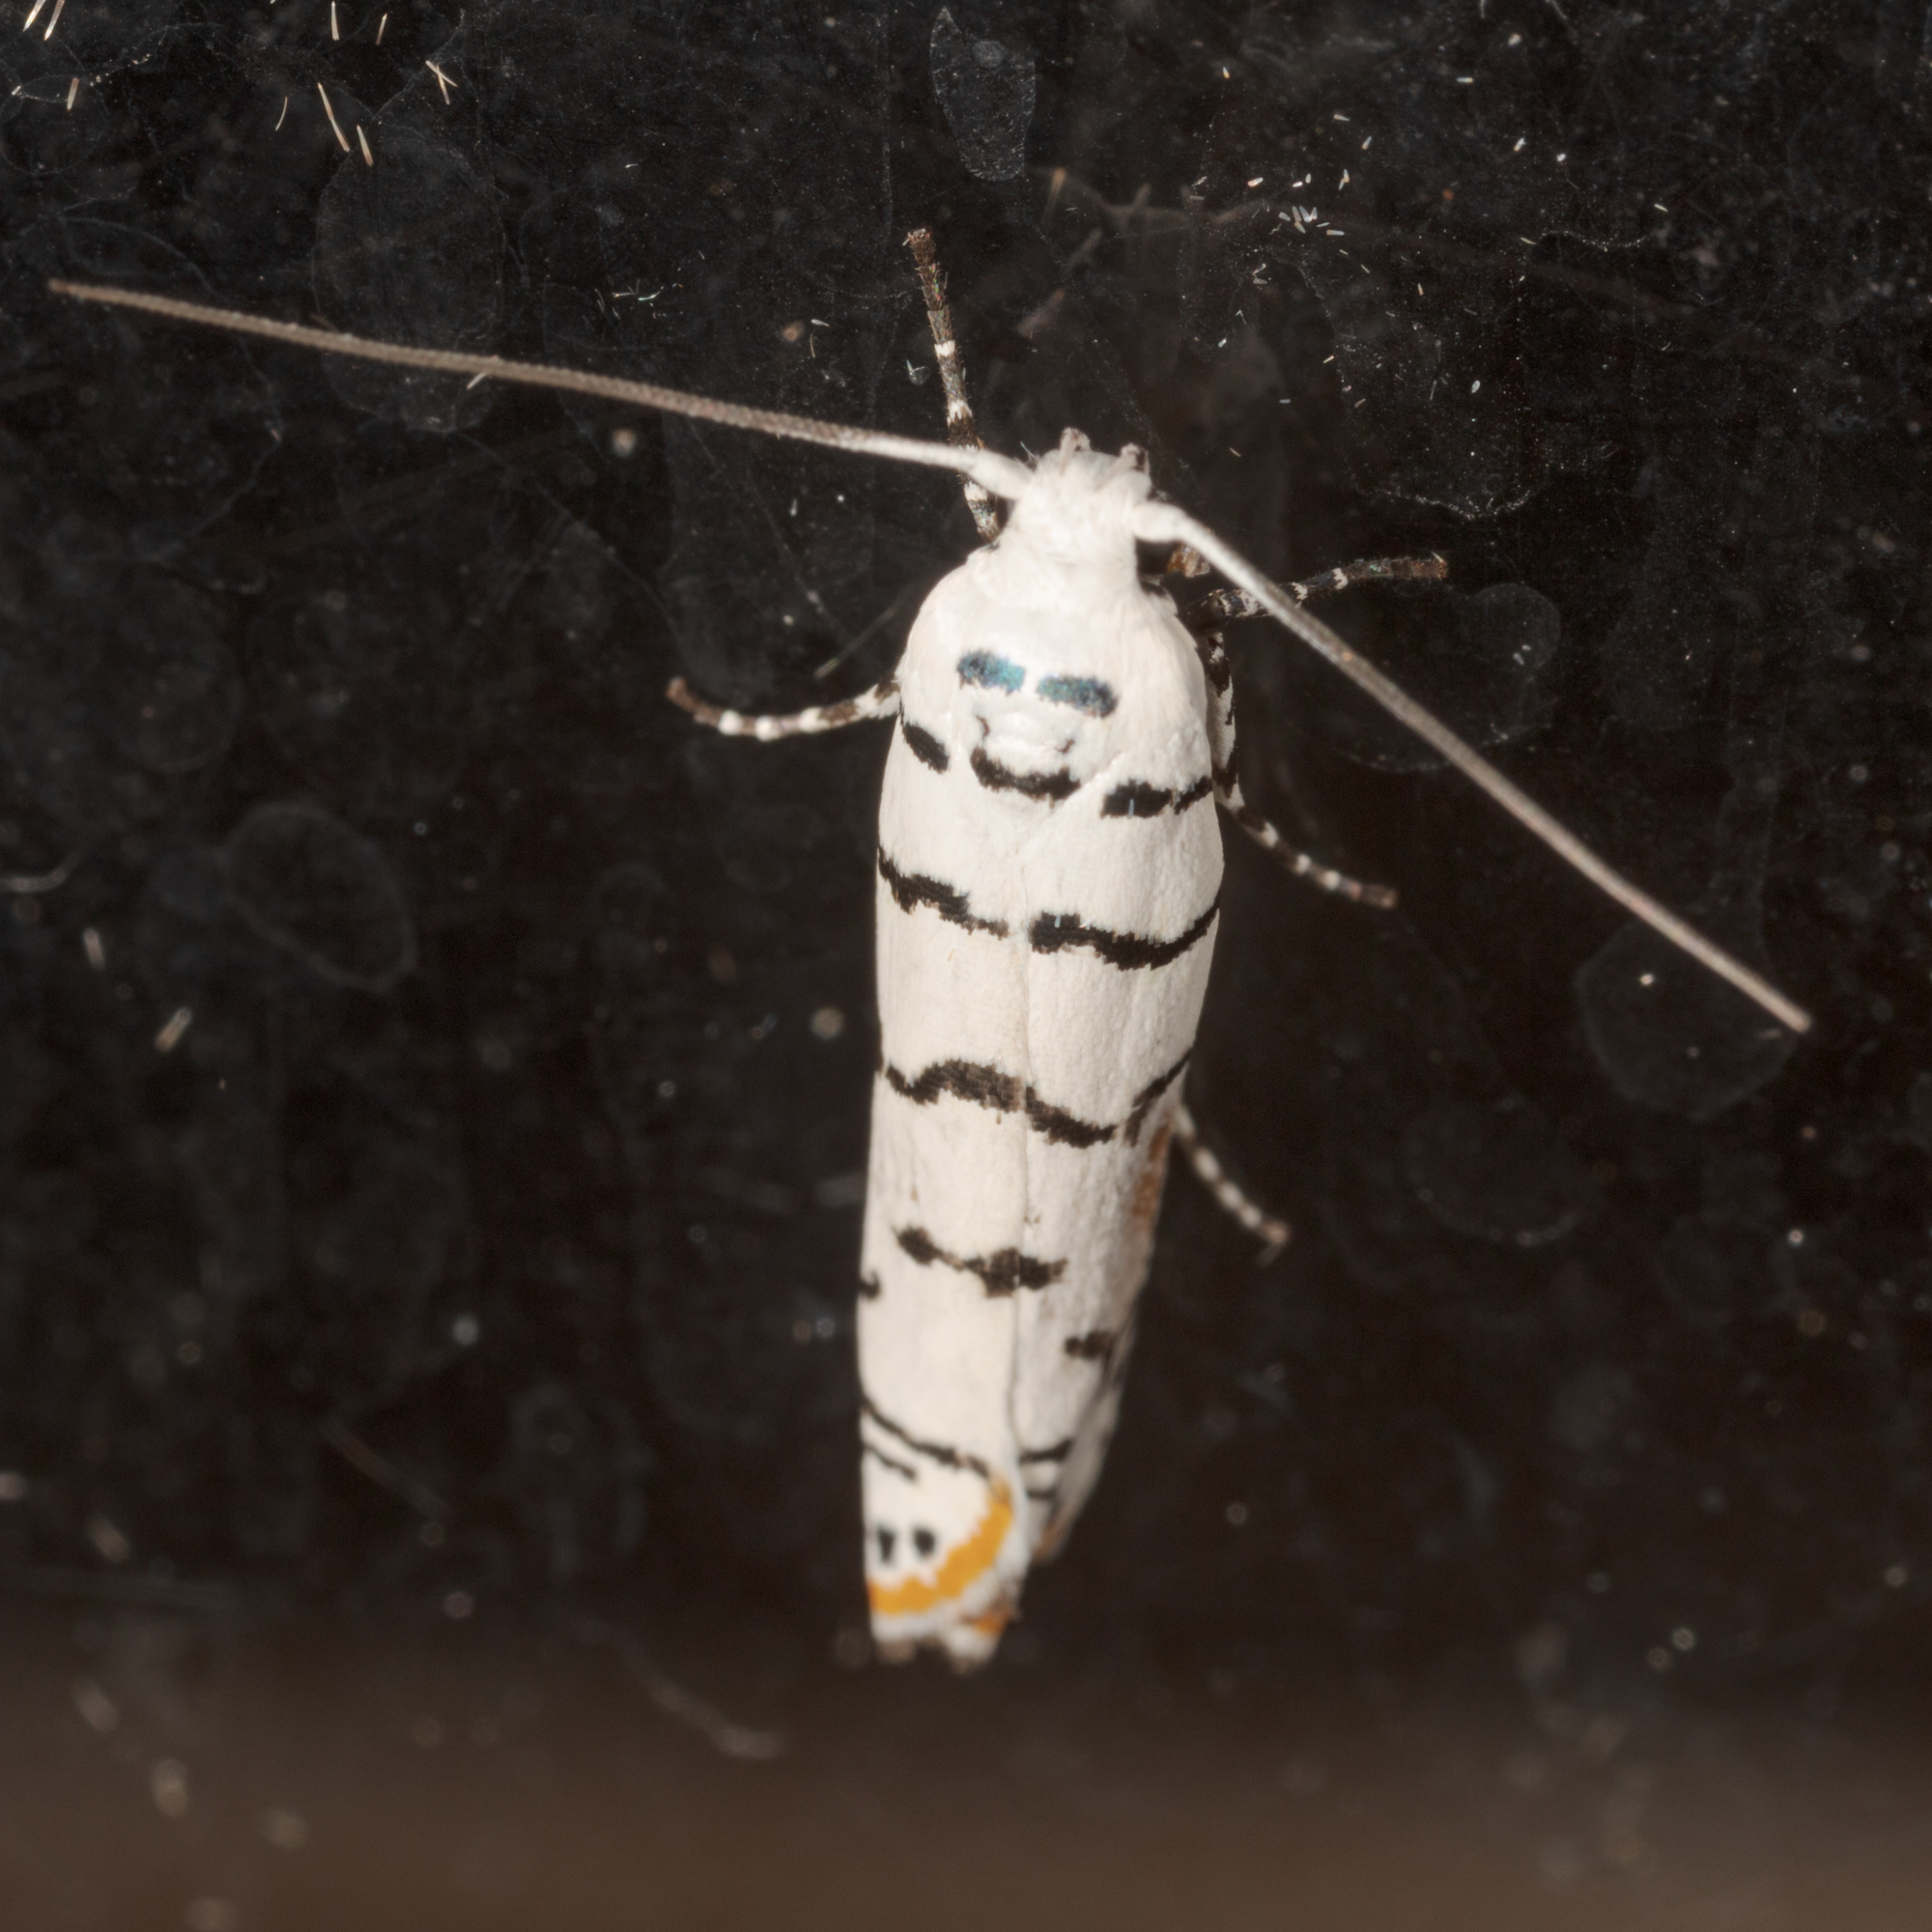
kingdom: Animalia
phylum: Arthropoda
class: Insecta
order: Lepidoptera
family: Ethmiidae
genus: Ethmia
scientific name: Ethmia delliella
